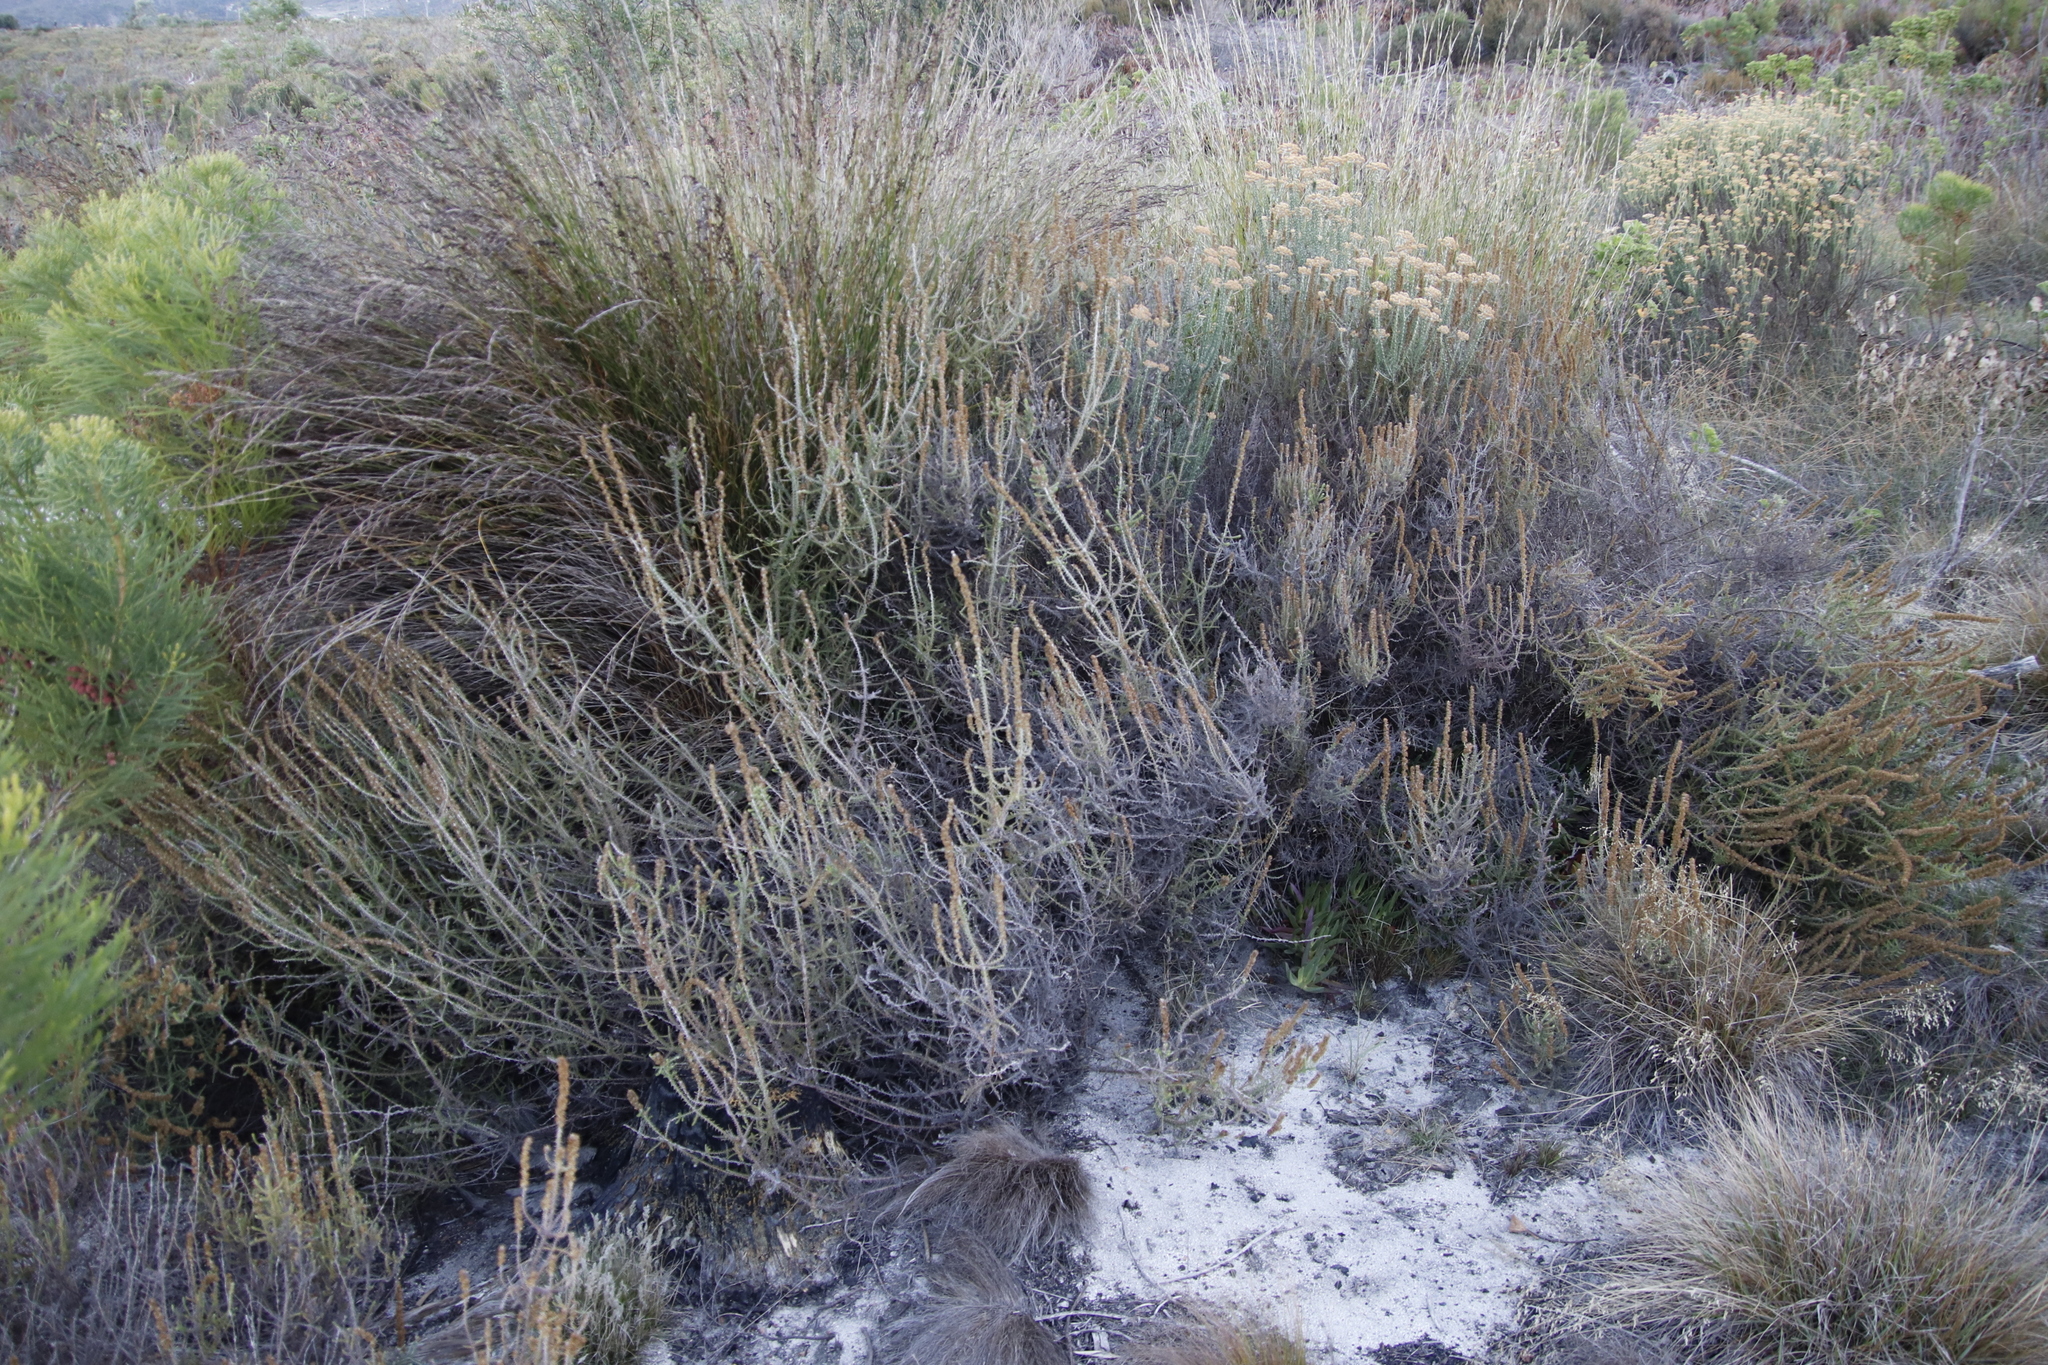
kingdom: Plantae
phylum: Tracheophyta
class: Magnoliopsida
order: Asterales
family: Asteraceae
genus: Seriphium
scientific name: Seriphium cinereum
